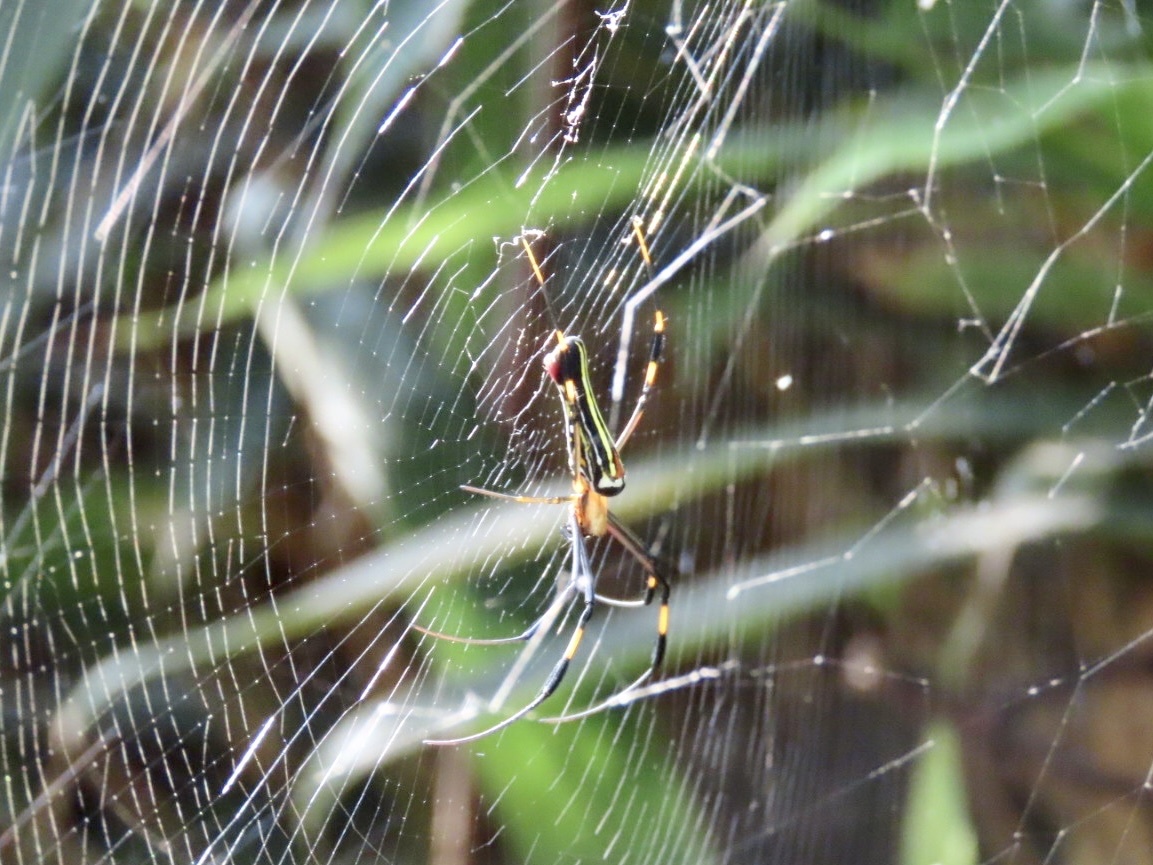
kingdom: Animalia
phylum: Arthropoda
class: Arachnida
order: Araneae
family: Araneidae
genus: Nephila
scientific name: Nephila pilipes
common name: Giant golden orb weaver
